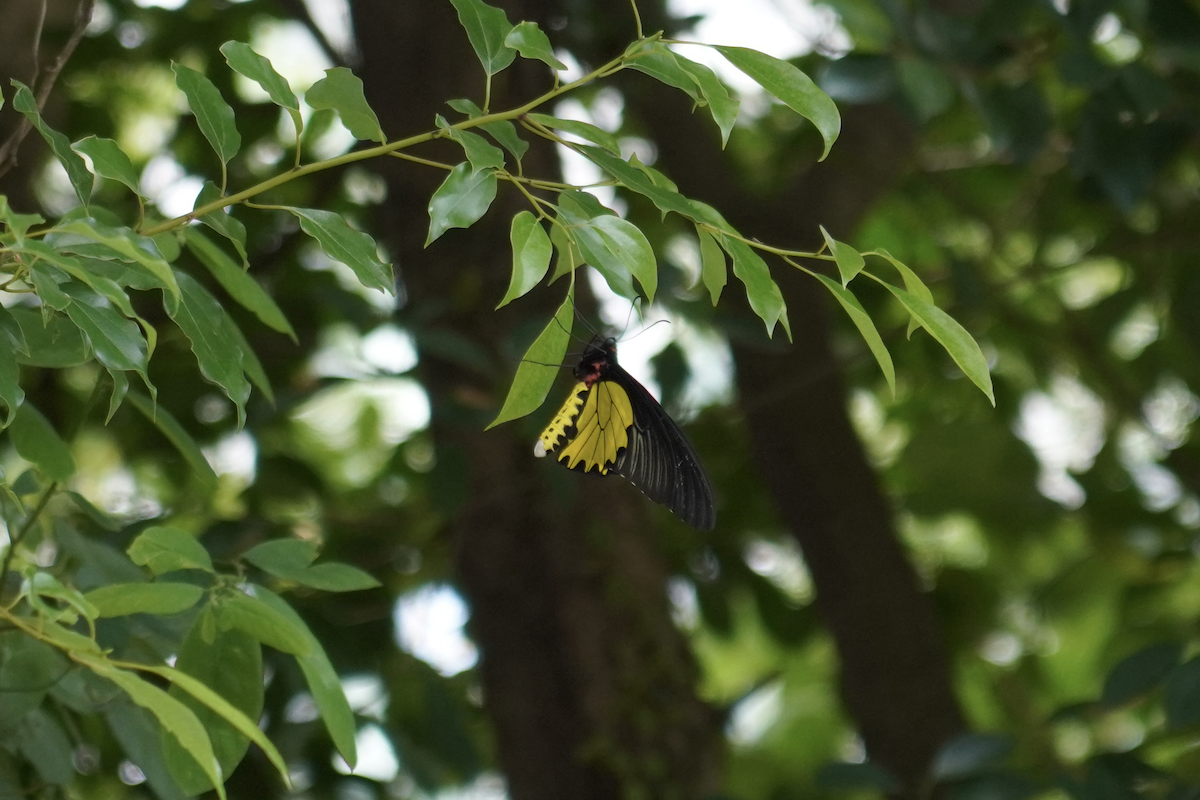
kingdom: Animalia
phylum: Arthropoda
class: Insecta
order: Lepidoptera
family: Papilionidae
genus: Troides
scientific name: Troides aeacus
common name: Golden birdwing
